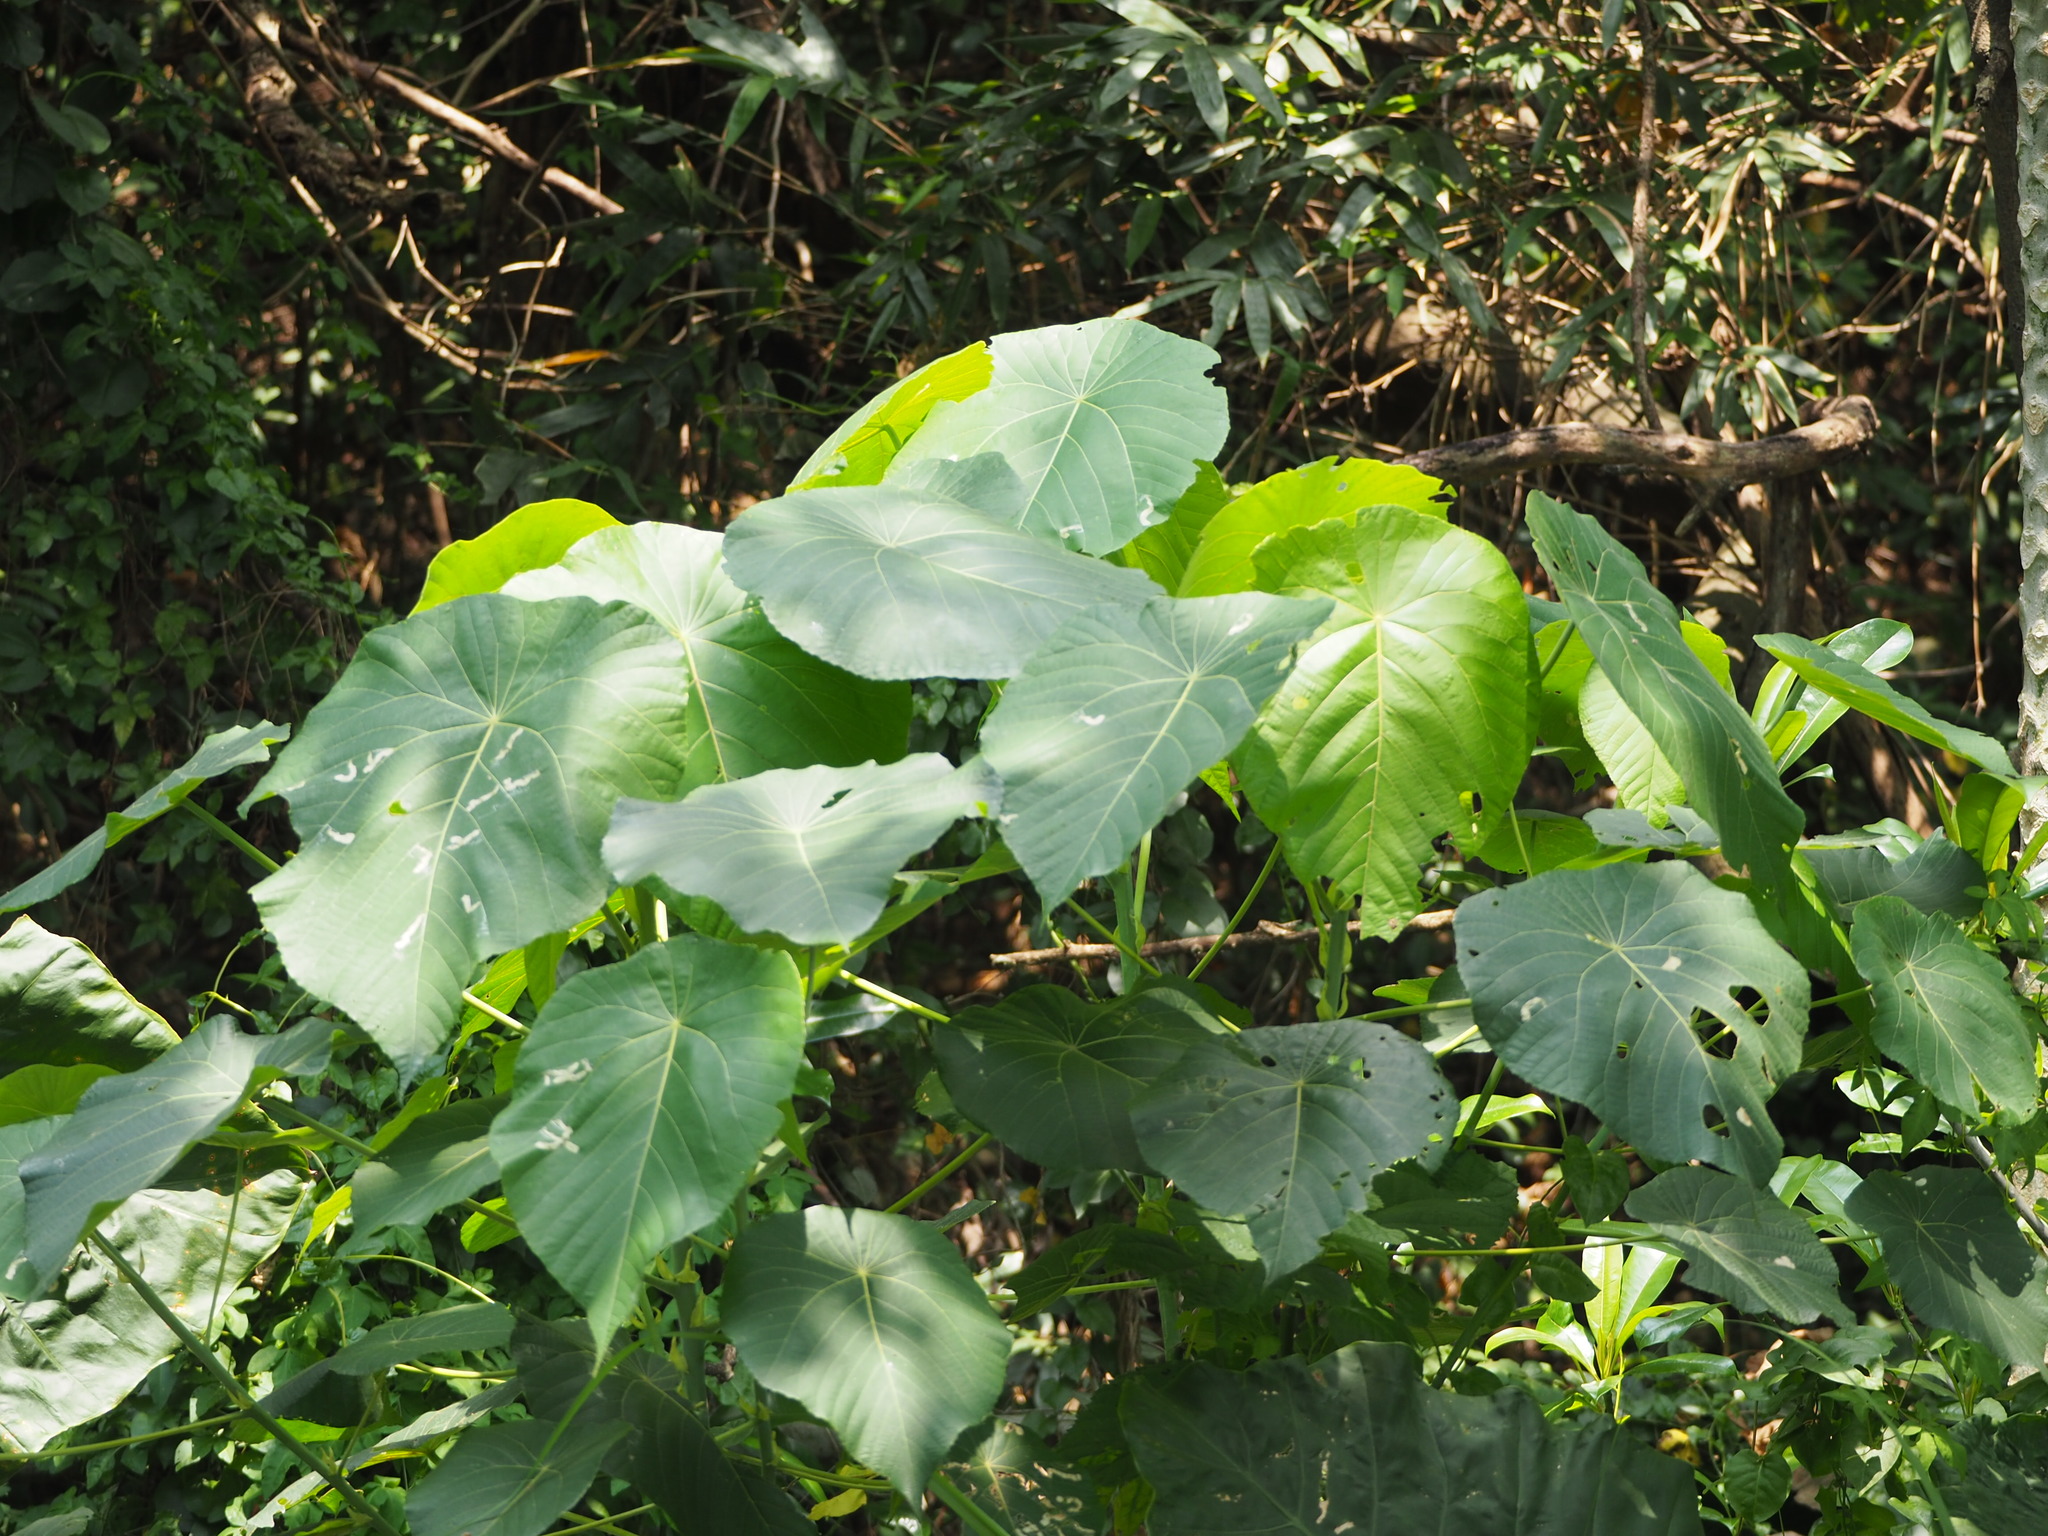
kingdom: Plantae
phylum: Tracheophyta
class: Magnoliopsida
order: Malpighiales
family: Euphorbiaceae
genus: Macaranga
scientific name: Macaranga tanarius
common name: Parasol leaf tree
